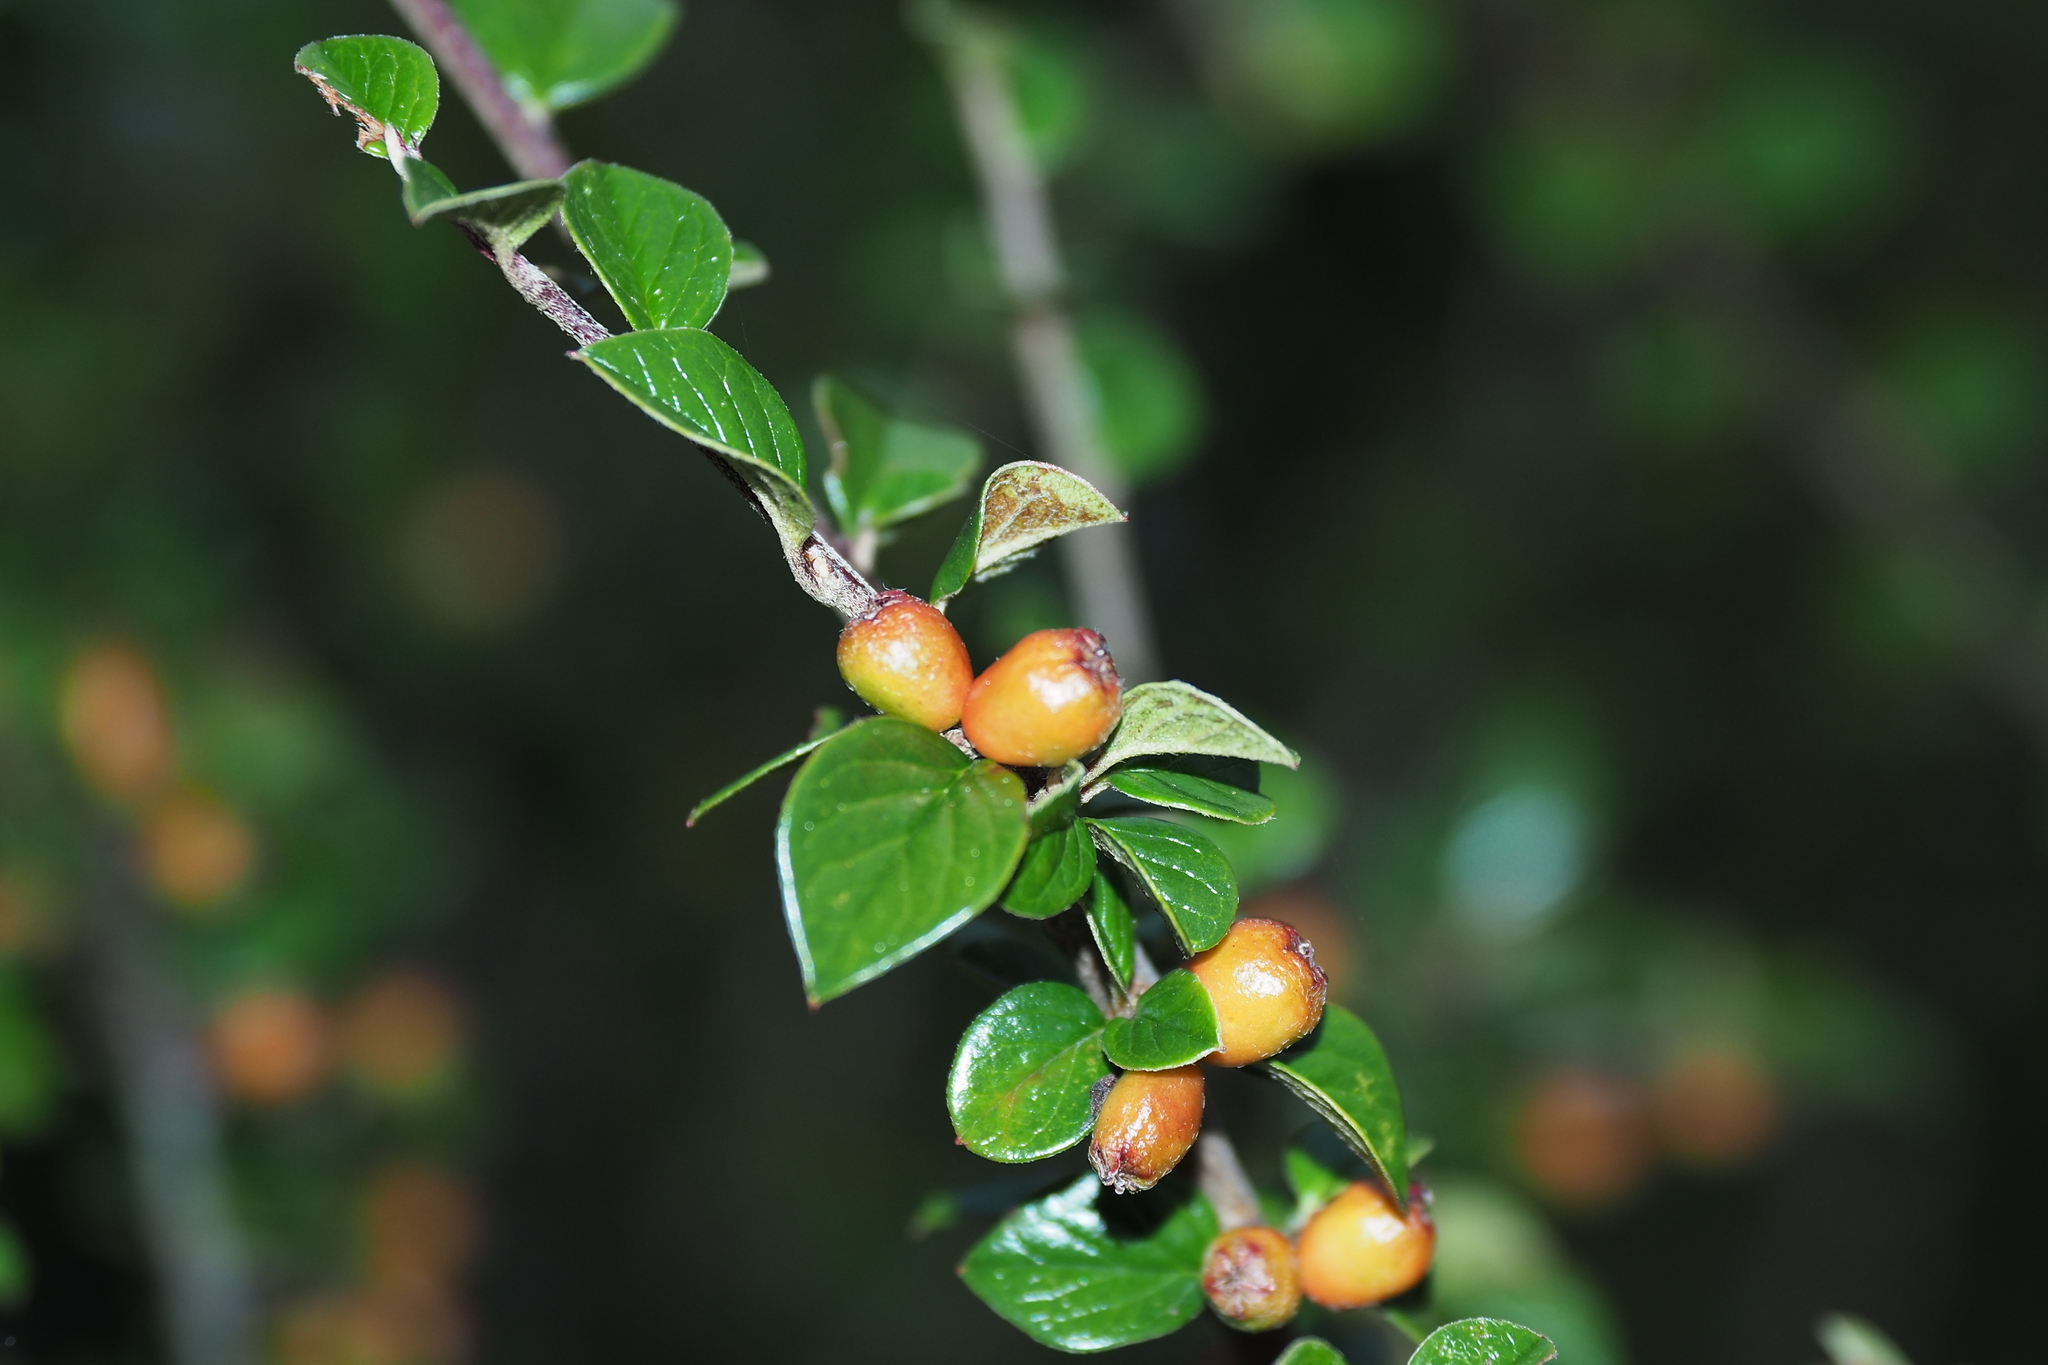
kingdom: Plantae
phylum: Tracheophyta
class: Magnoliopsida
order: Rosales
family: Rosaceae
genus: Cotoneaster
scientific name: Cotoneaster apiculatus
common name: Cranberry cotoneaster
